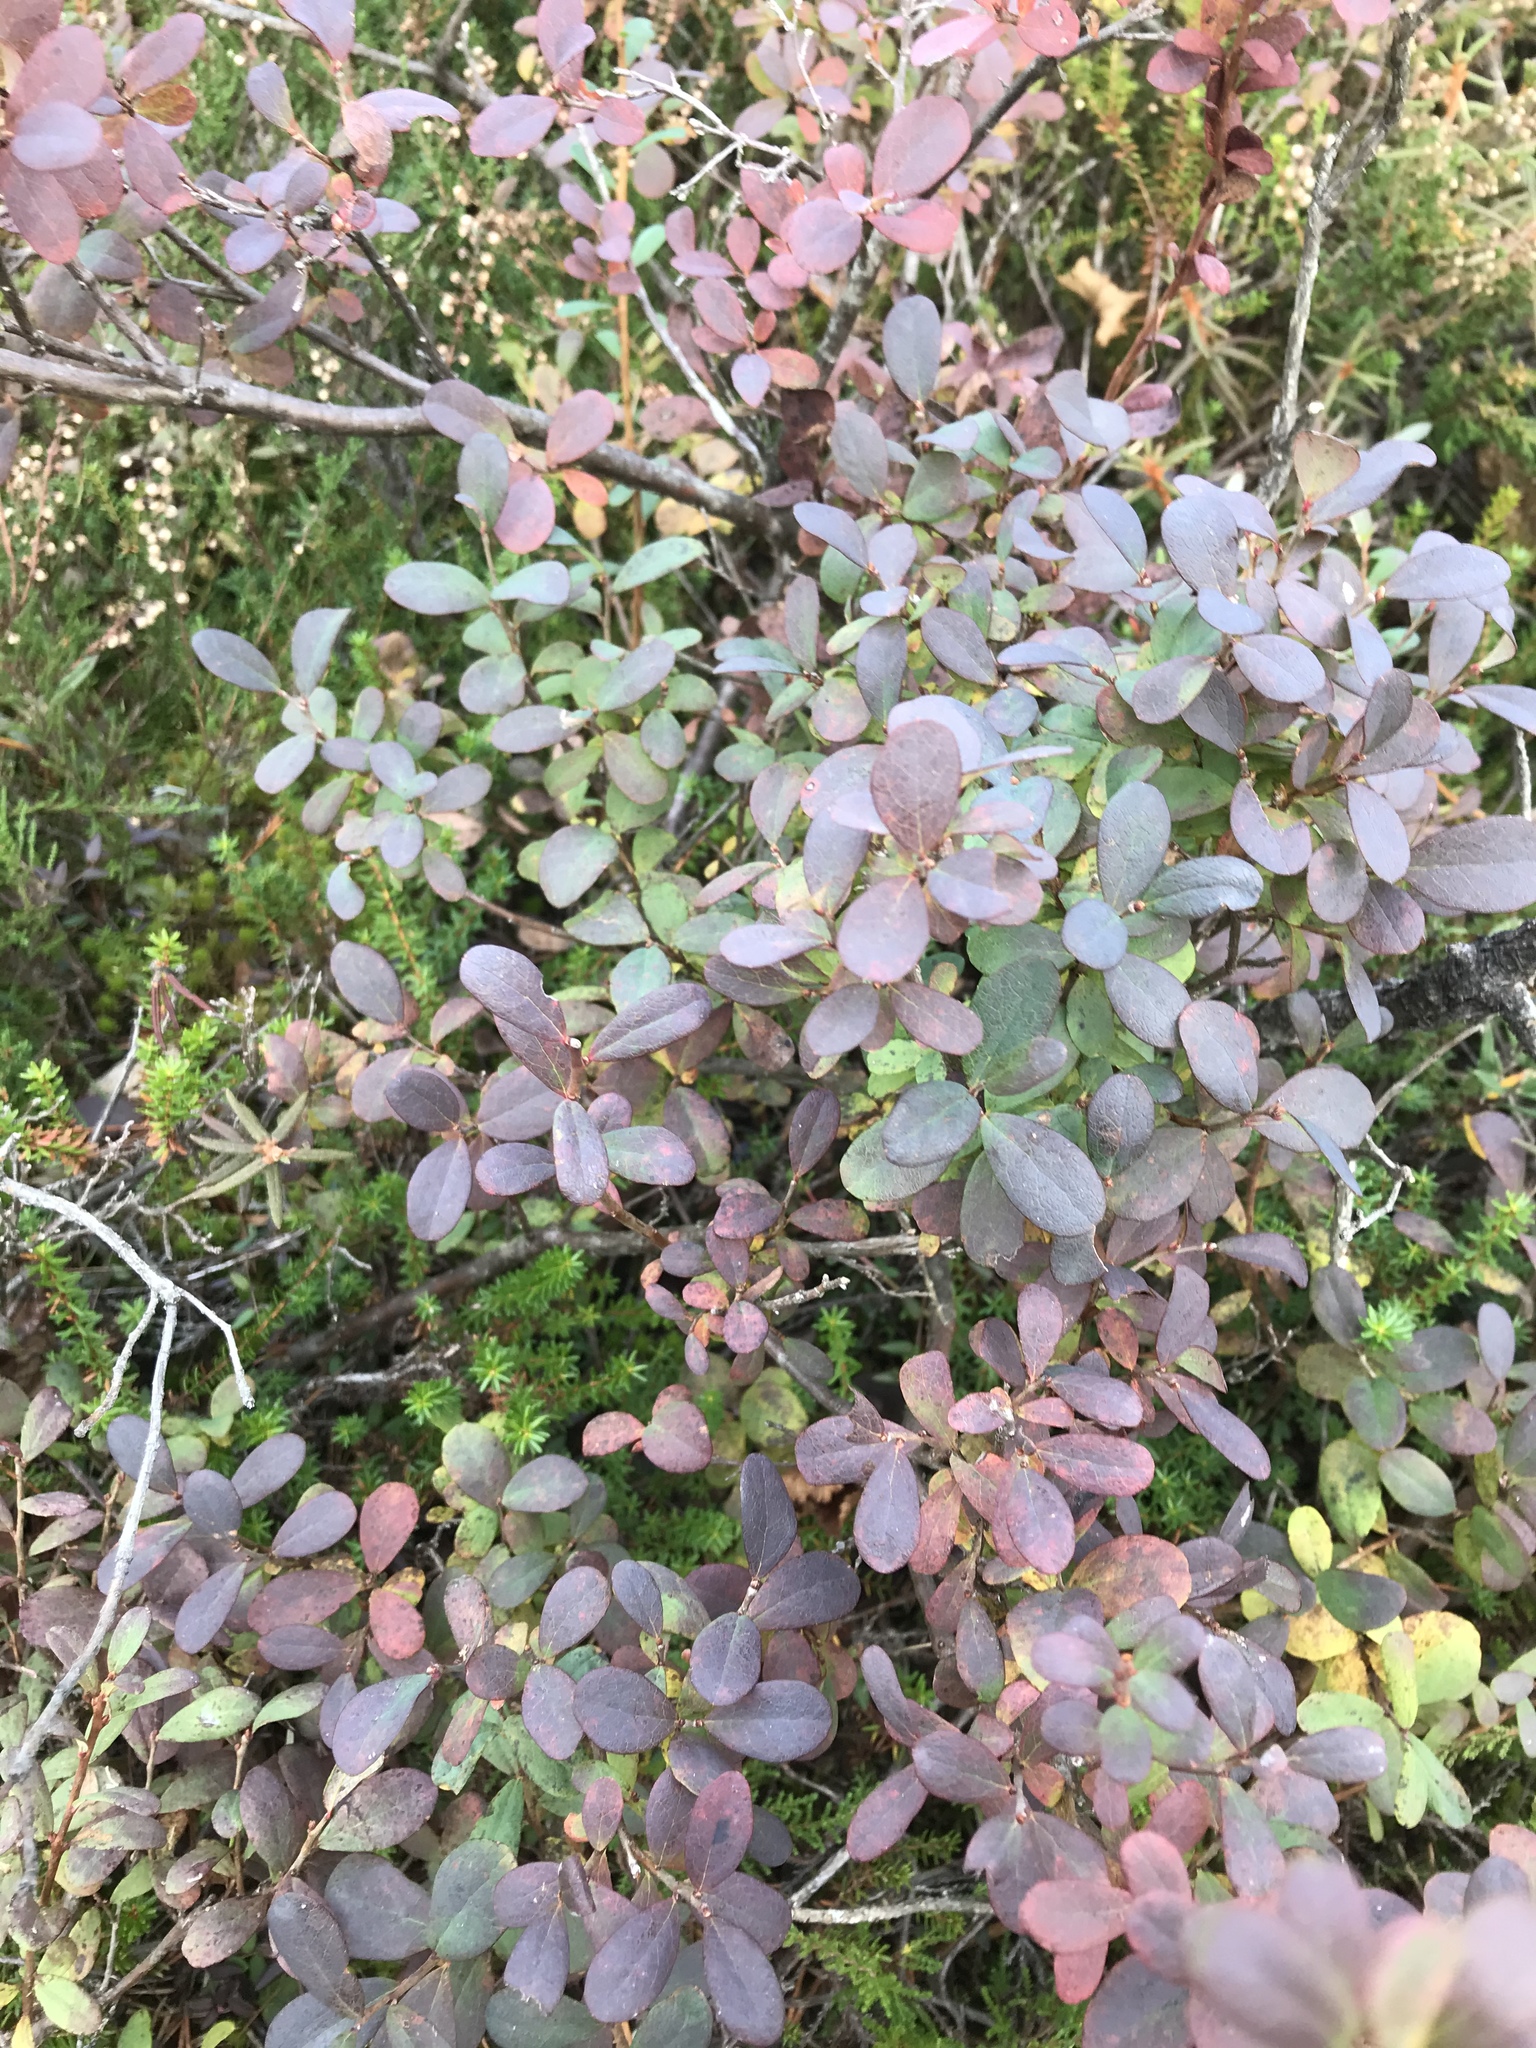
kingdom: Plantae
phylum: Tracheophyta
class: Magnoliopsida
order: Ericales
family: Ericaceae
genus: Vaccinium
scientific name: Vaccinium uliginosum
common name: Bog bilberry
